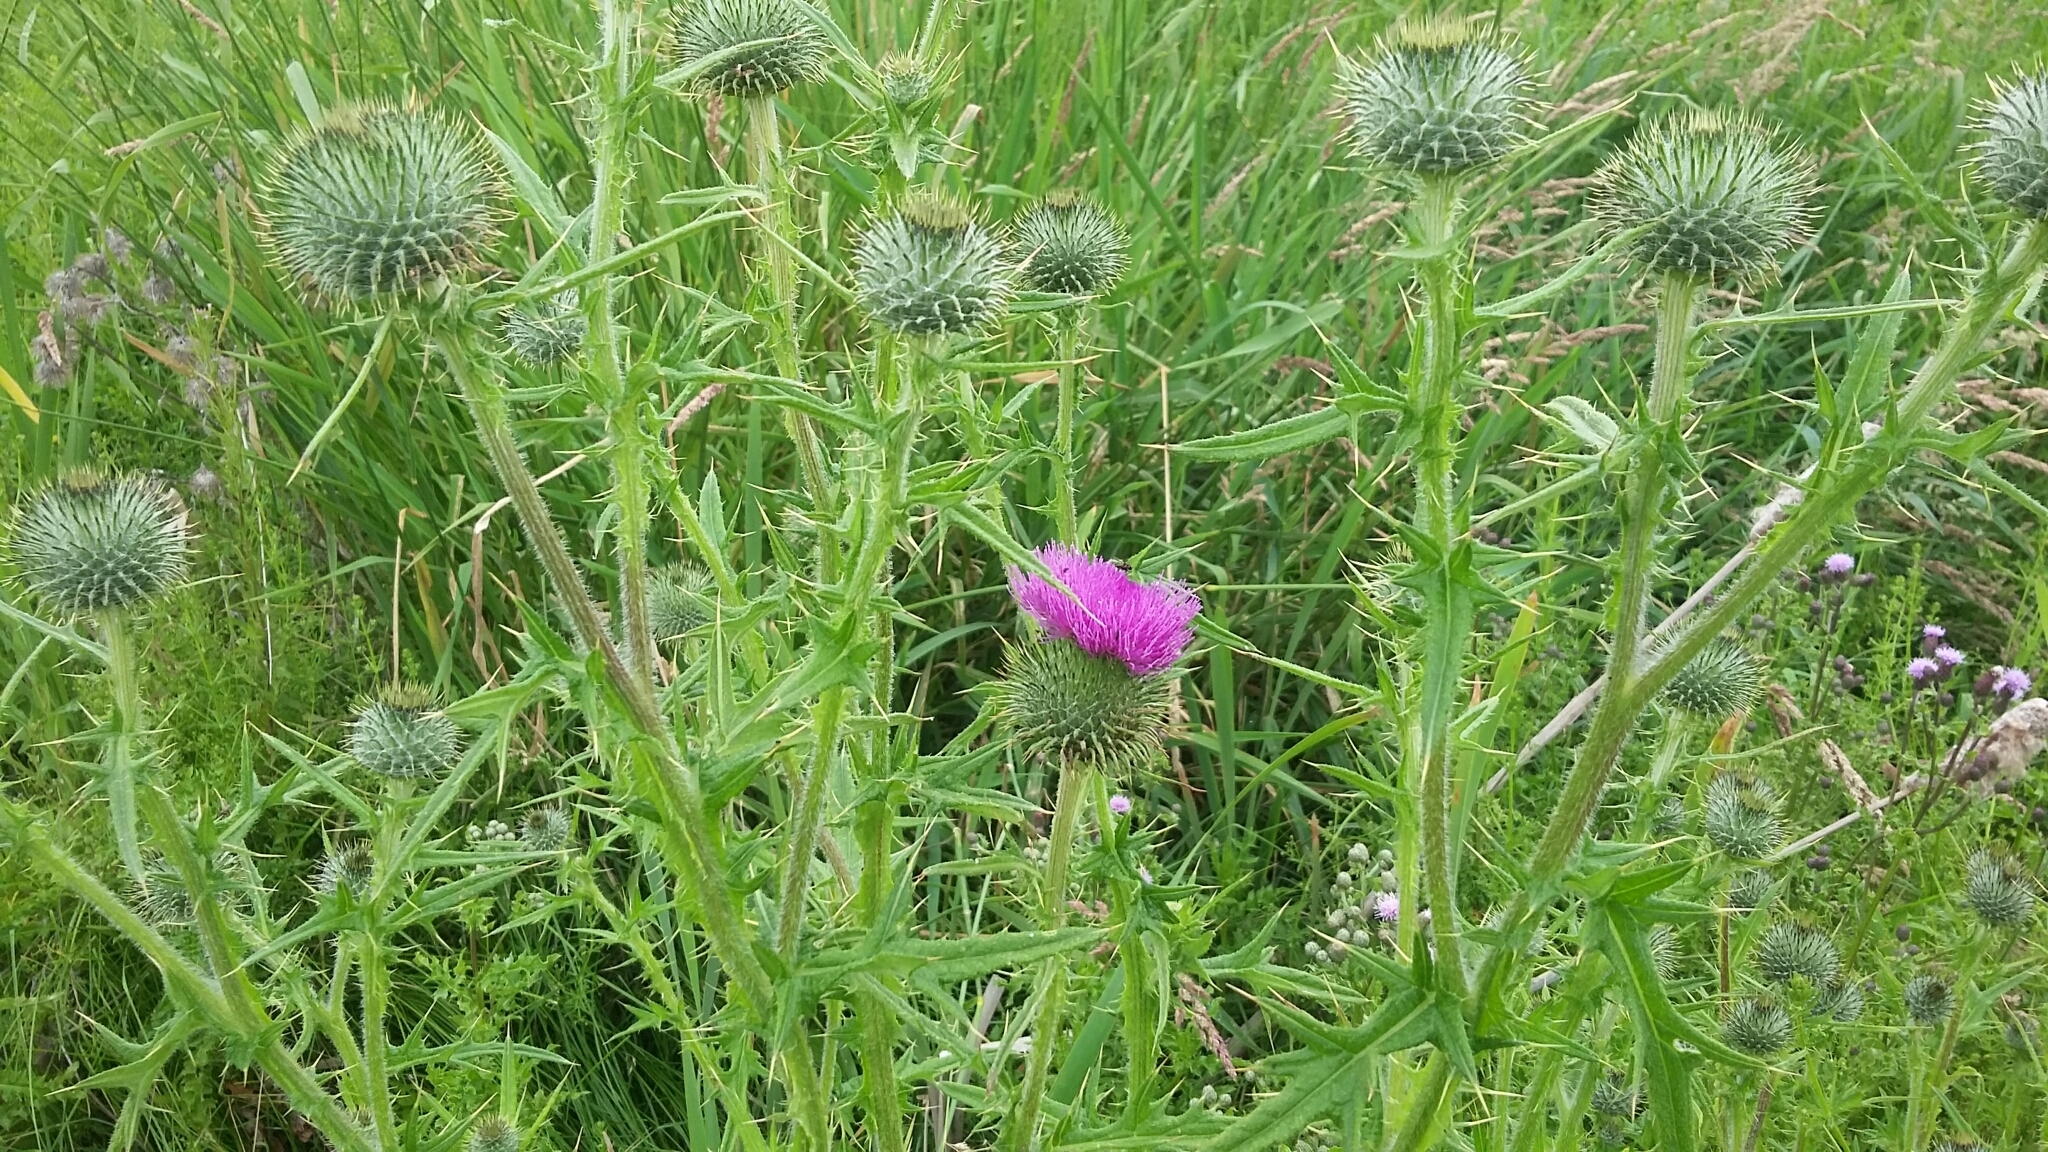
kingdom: Plantae
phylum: Tracheophyta
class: Magnoliopsida
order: Asterales
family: Asteraceae
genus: Cirsium
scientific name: Cirsium vulgare
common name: Bull thistle
